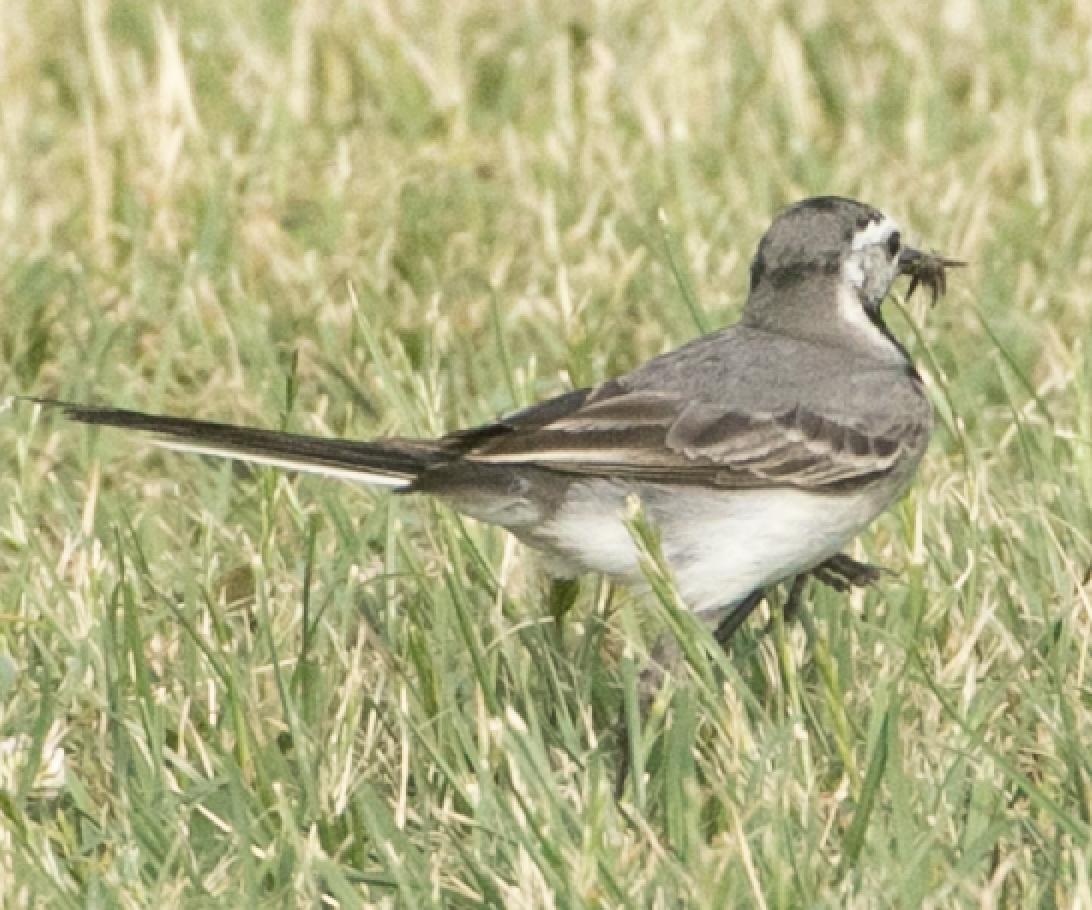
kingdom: Animalia
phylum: Chordata
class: Aves
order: Passeriformes
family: Motacillidae
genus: Motacilla
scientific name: Motacilla alba
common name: White wagtail
